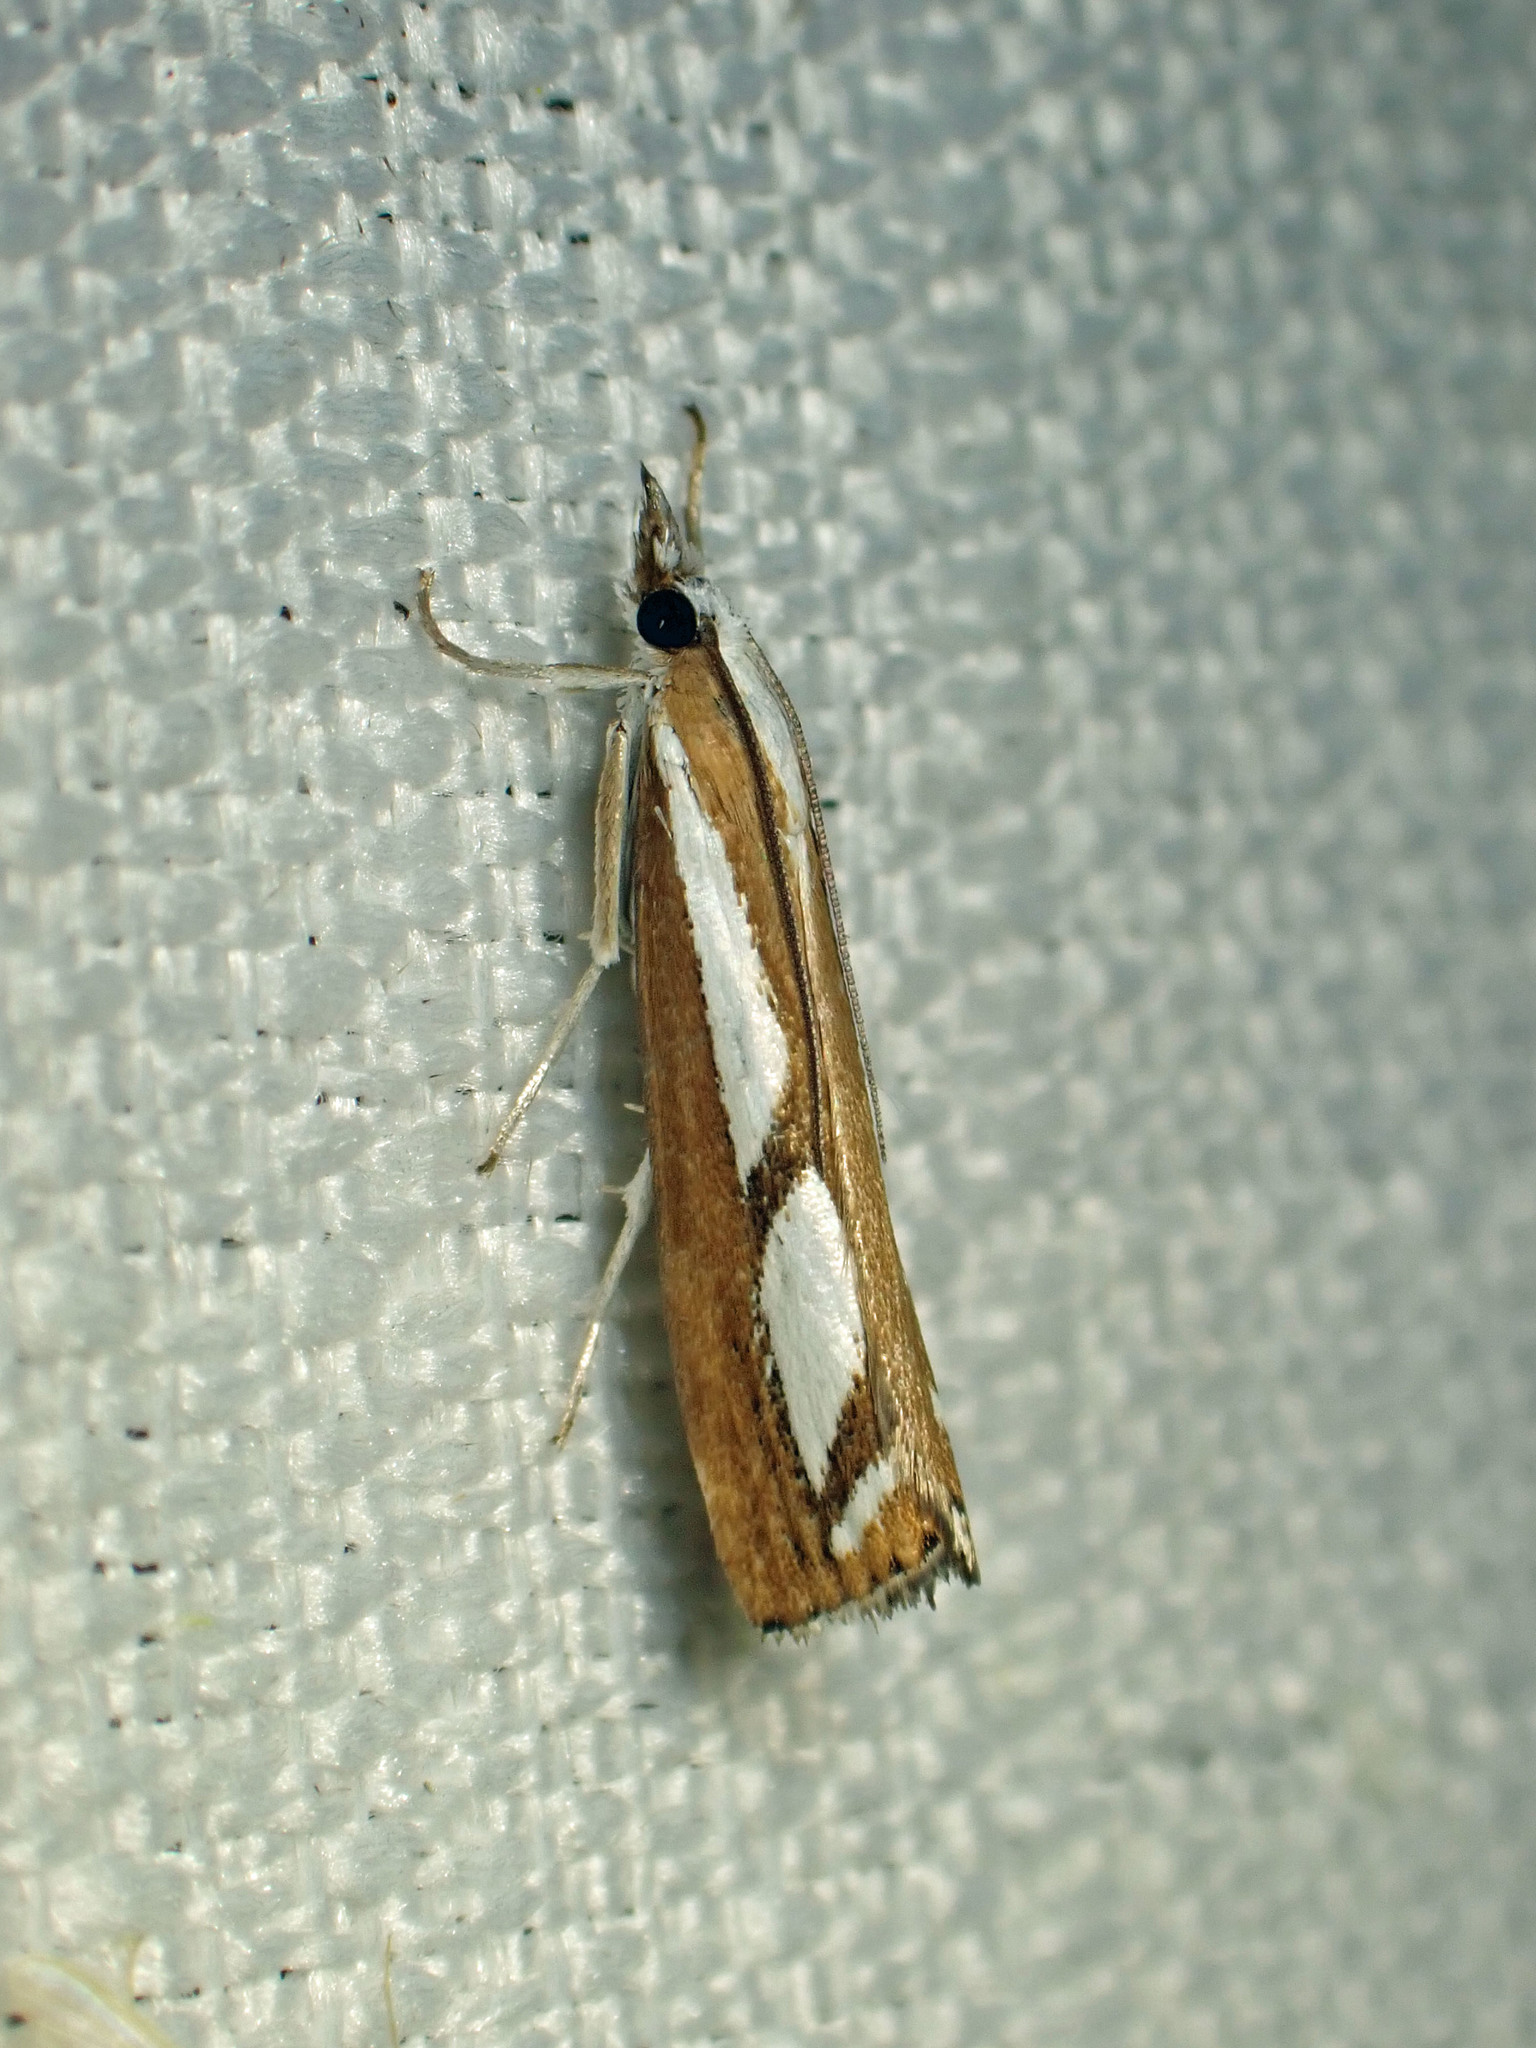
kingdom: Animalia
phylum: Arthropoda
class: Insecta
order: Lepidoptera
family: Crambidae
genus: Catoptria
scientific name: Catoptria latiradiellus
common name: Two-banded catoptria moth
